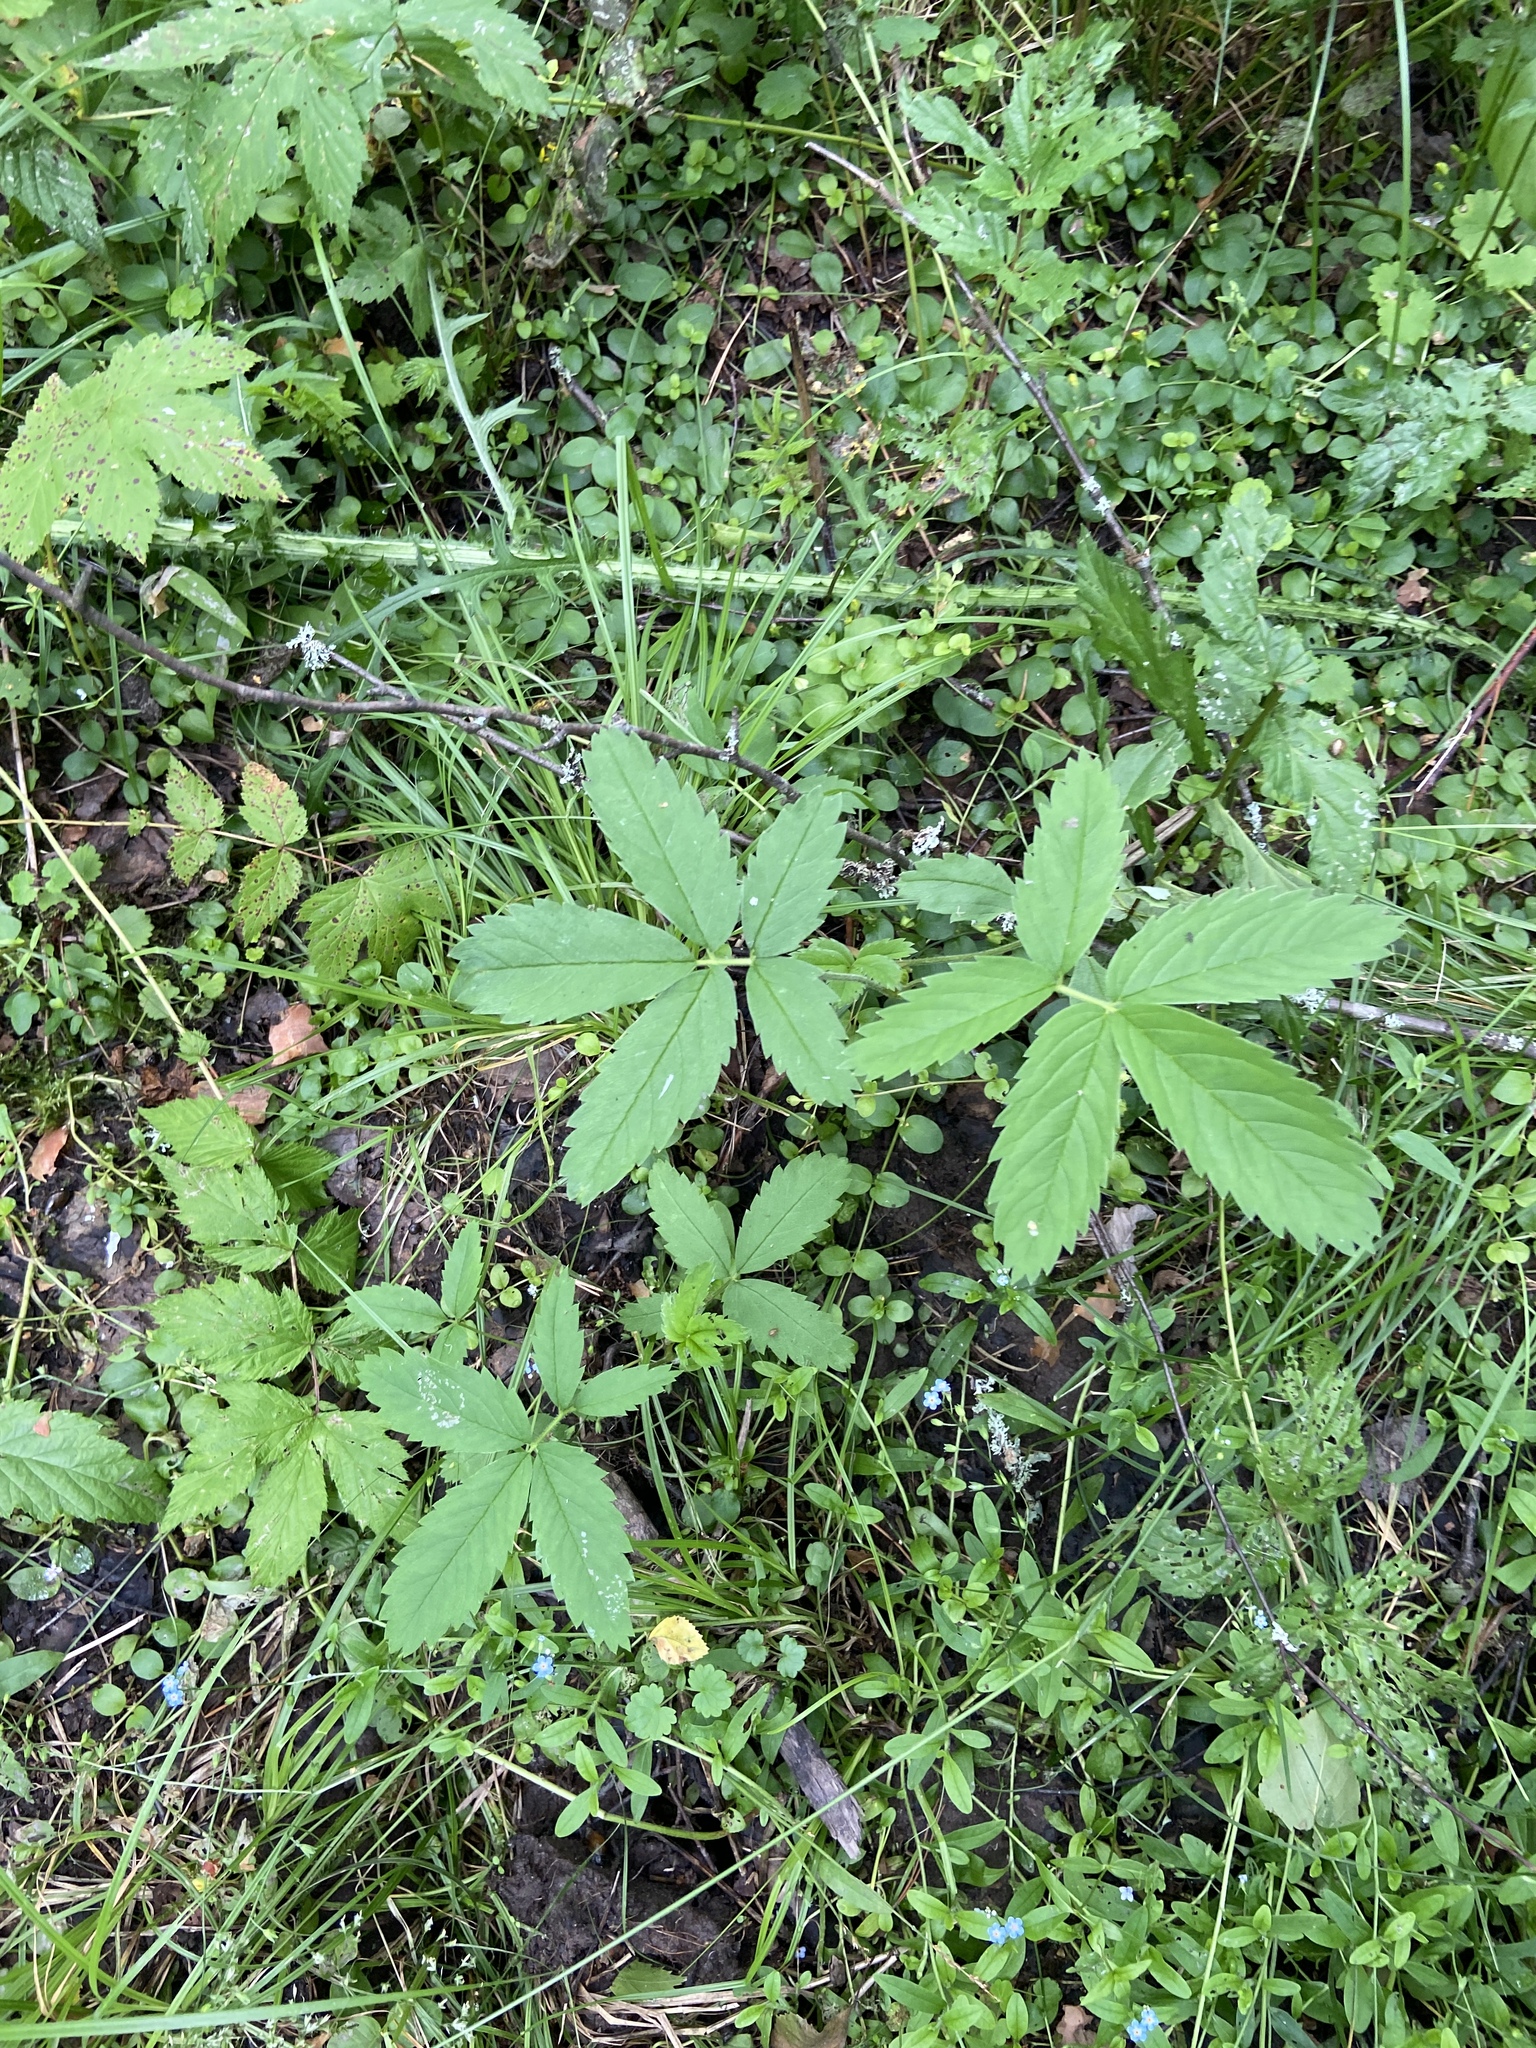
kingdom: Plantae
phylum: Tracheophyta
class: Magnoliopsida
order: Rosales
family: Rosaceae
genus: Comarum
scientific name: Comarum palustre
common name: Marsh cinquefoil
